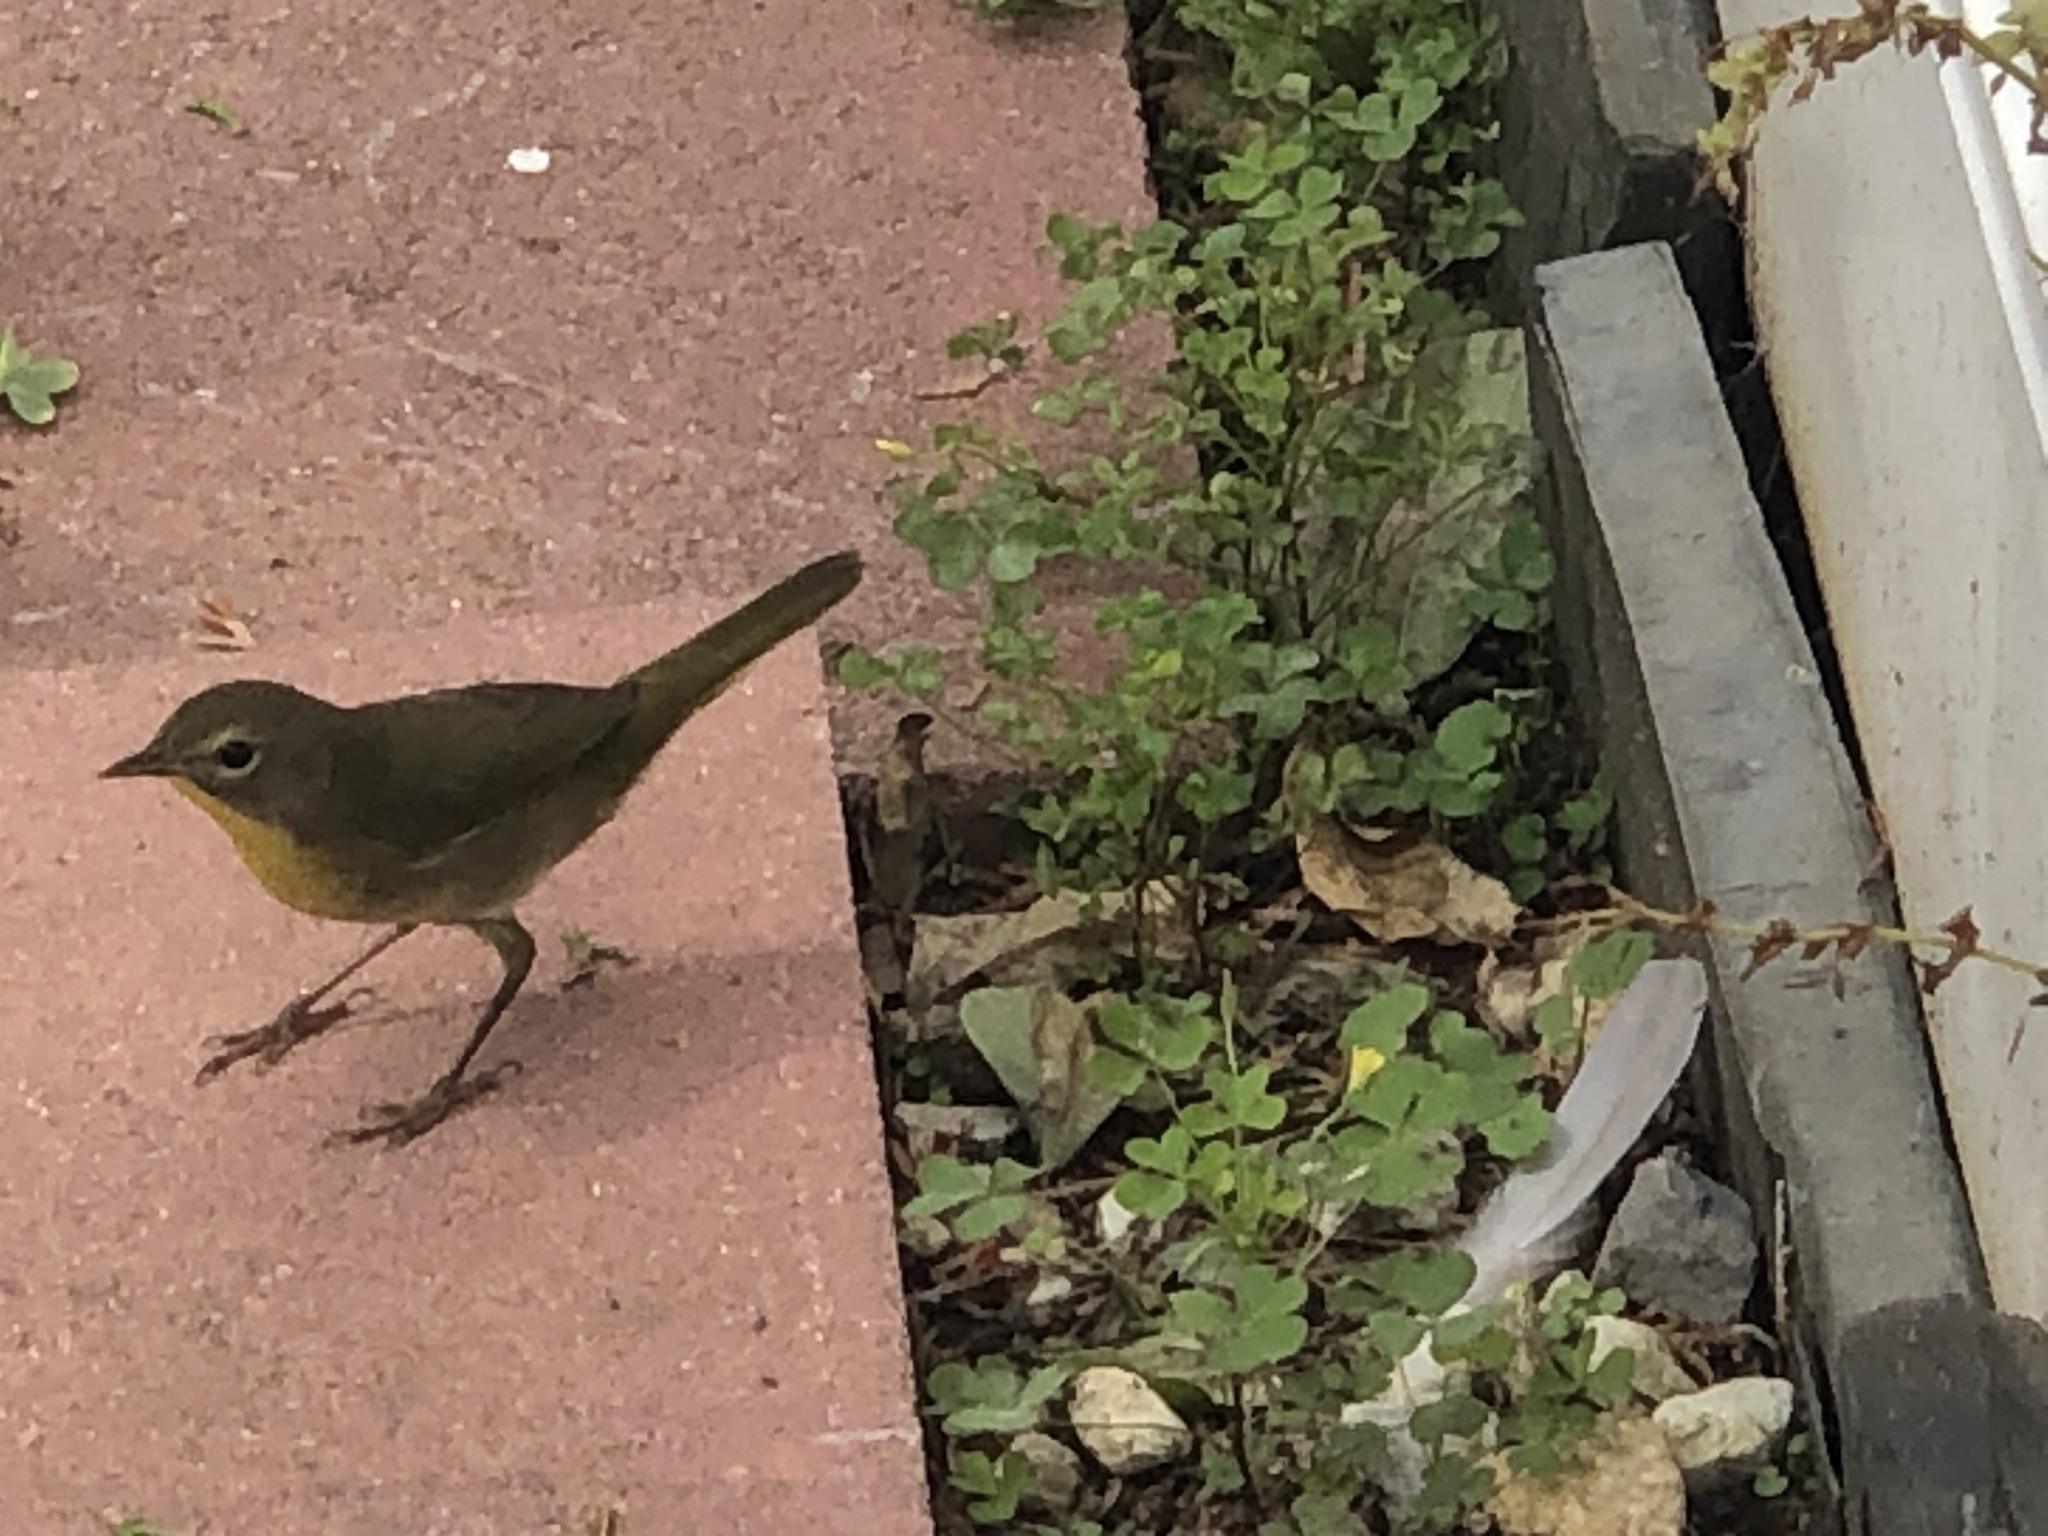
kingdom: Animalia
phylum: Chordata
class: Aves
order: Passeriformes
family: Parulidae
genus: Geothlypis
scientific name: Geothlypis trichas
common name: Common yellowthroat
